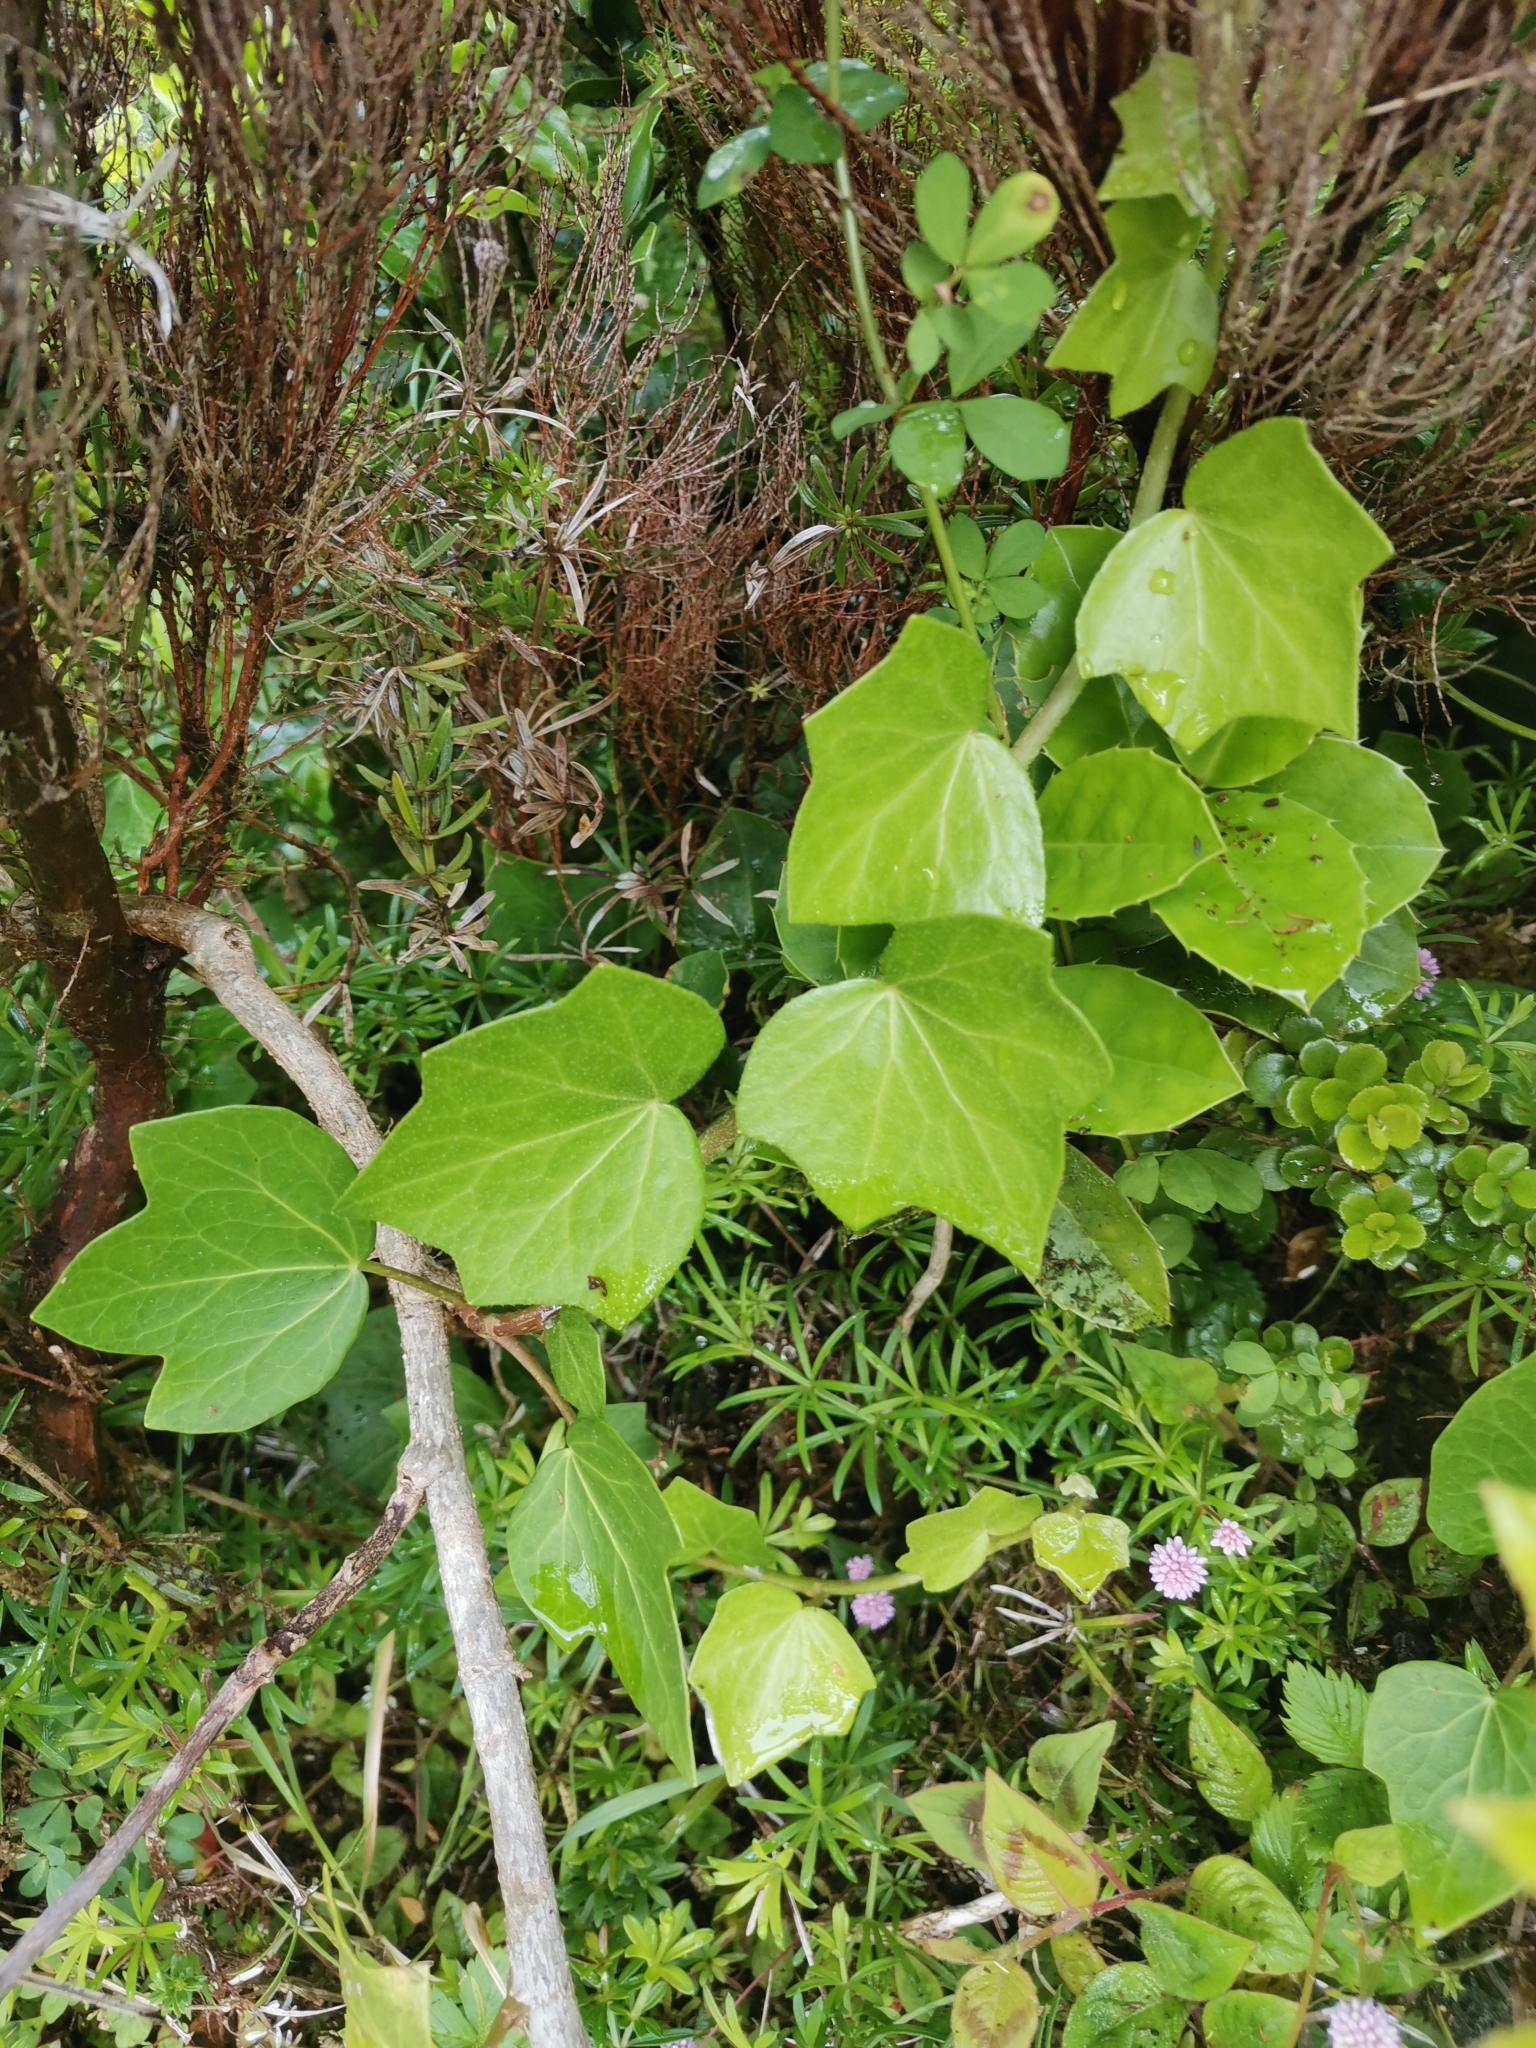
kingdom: Plantae
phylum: Tracheophyta
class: Magnoliopsida
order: Apiales
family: Araliaceae
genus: Hedera
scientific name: Hedera azorica
